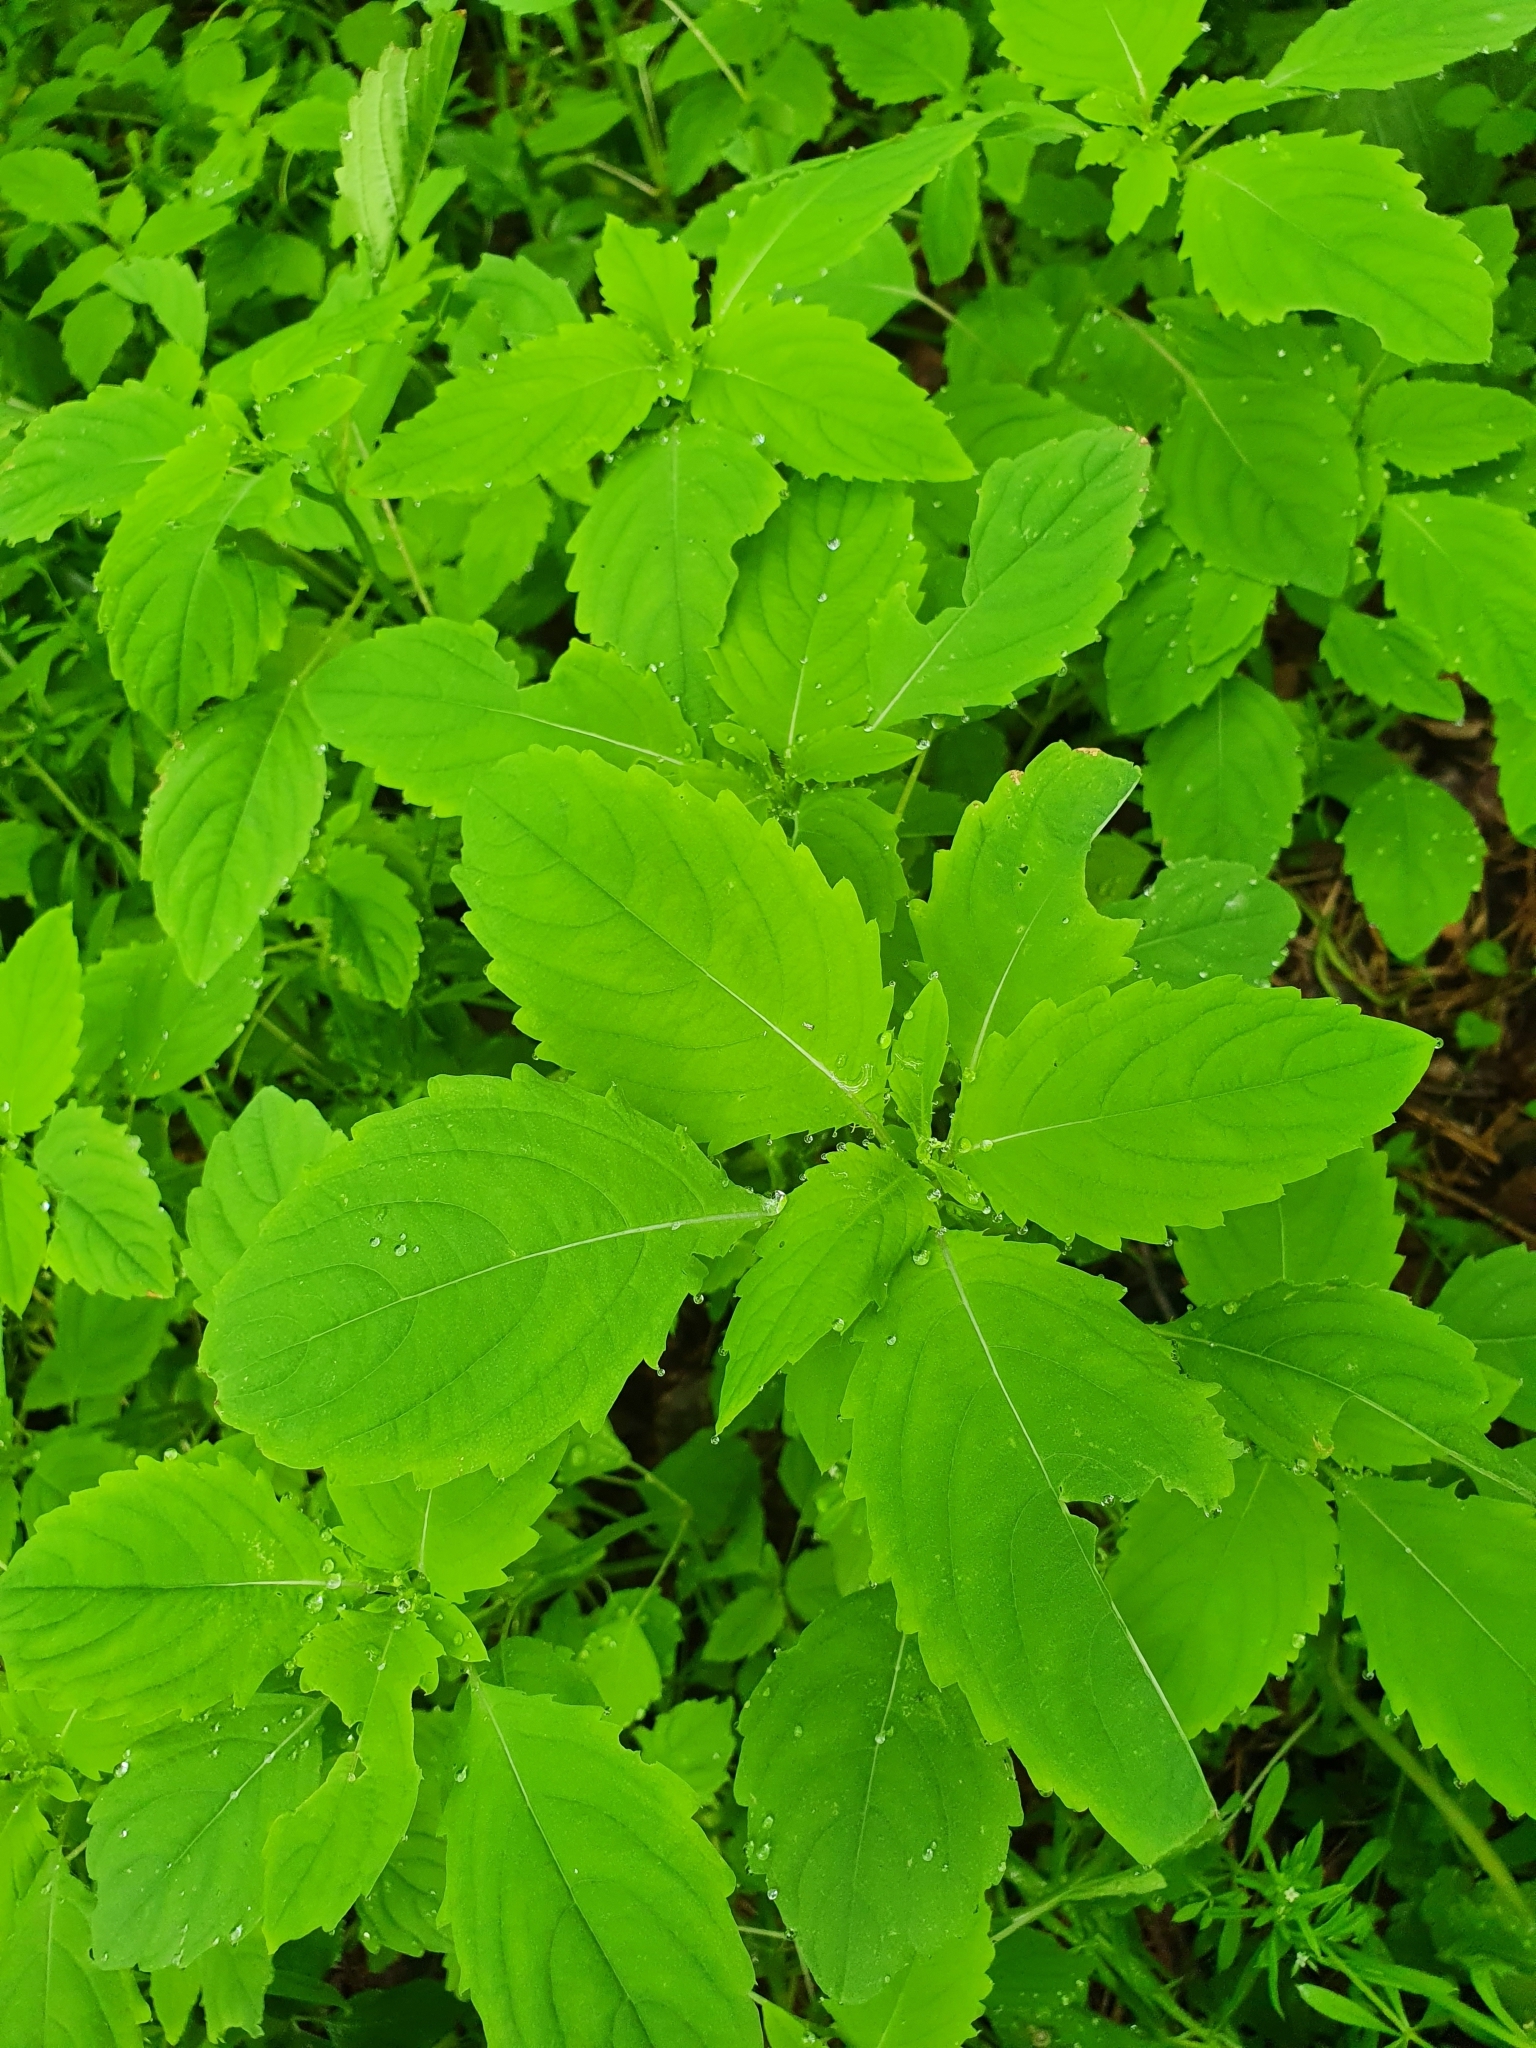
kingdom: Plantae
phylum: Tracheophyta
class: Magnoliopsida
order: Ericales
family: Balsaminaceae
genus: Impatiens
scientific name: Impatiens noli-tangere
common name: Touch-me-not balsam
